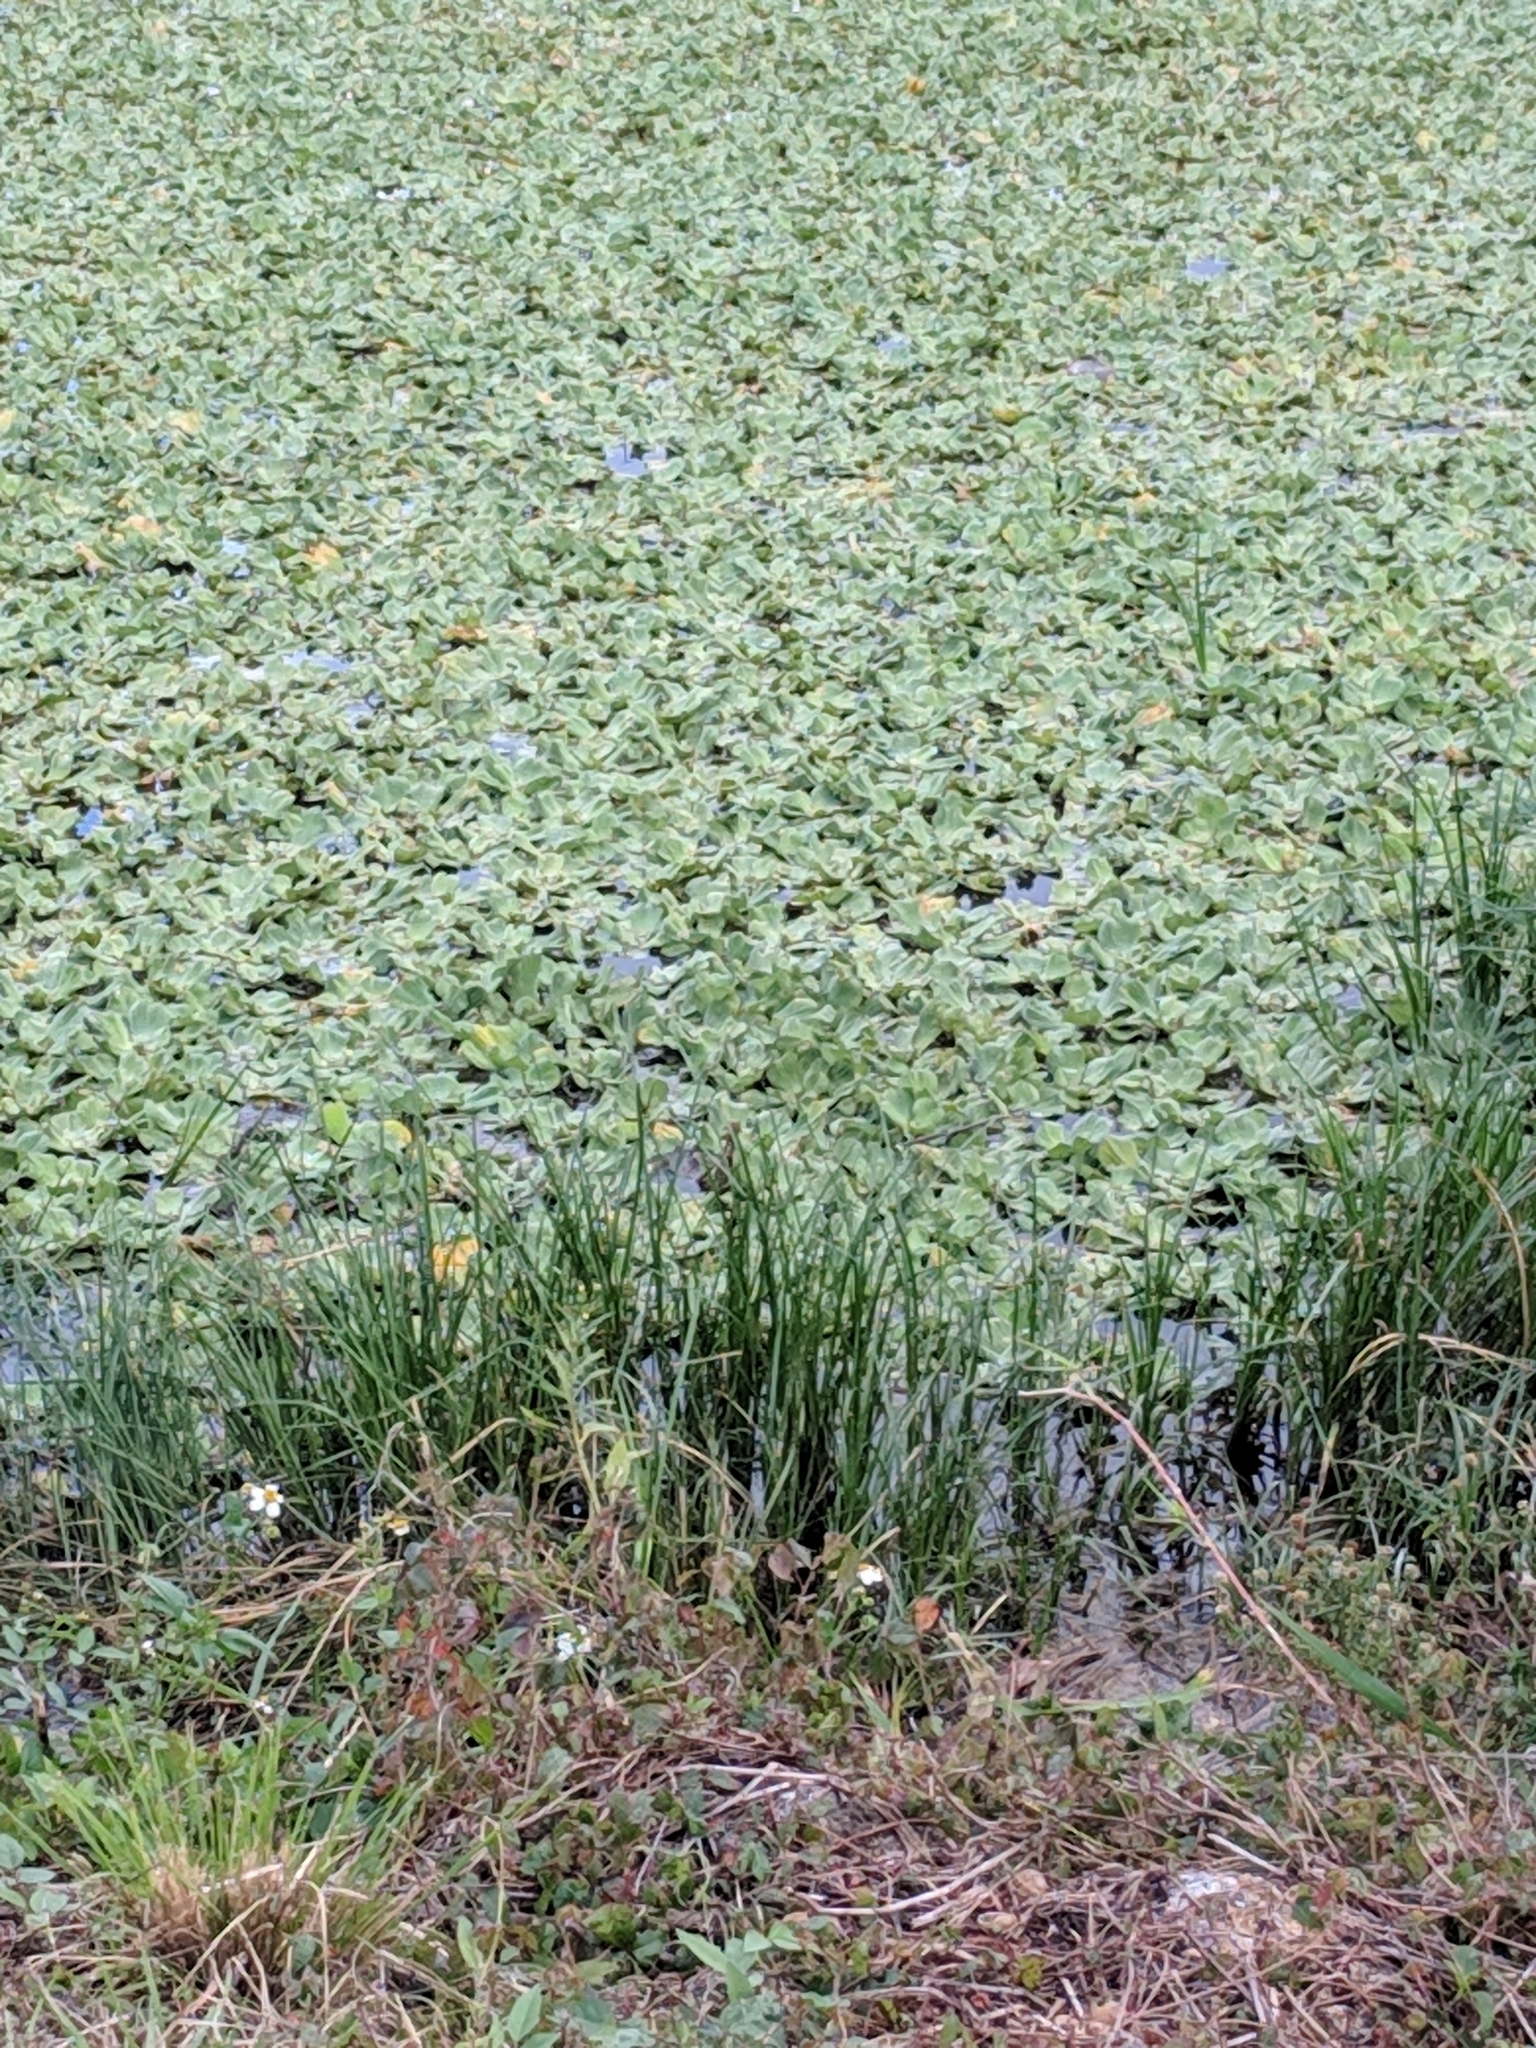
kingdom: Plantae
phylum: Tracheophyta
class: Liliopsida
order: Alismatales
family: Araceae
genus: Pistia
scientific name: Pistia stratiotes
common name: Water lettuce
